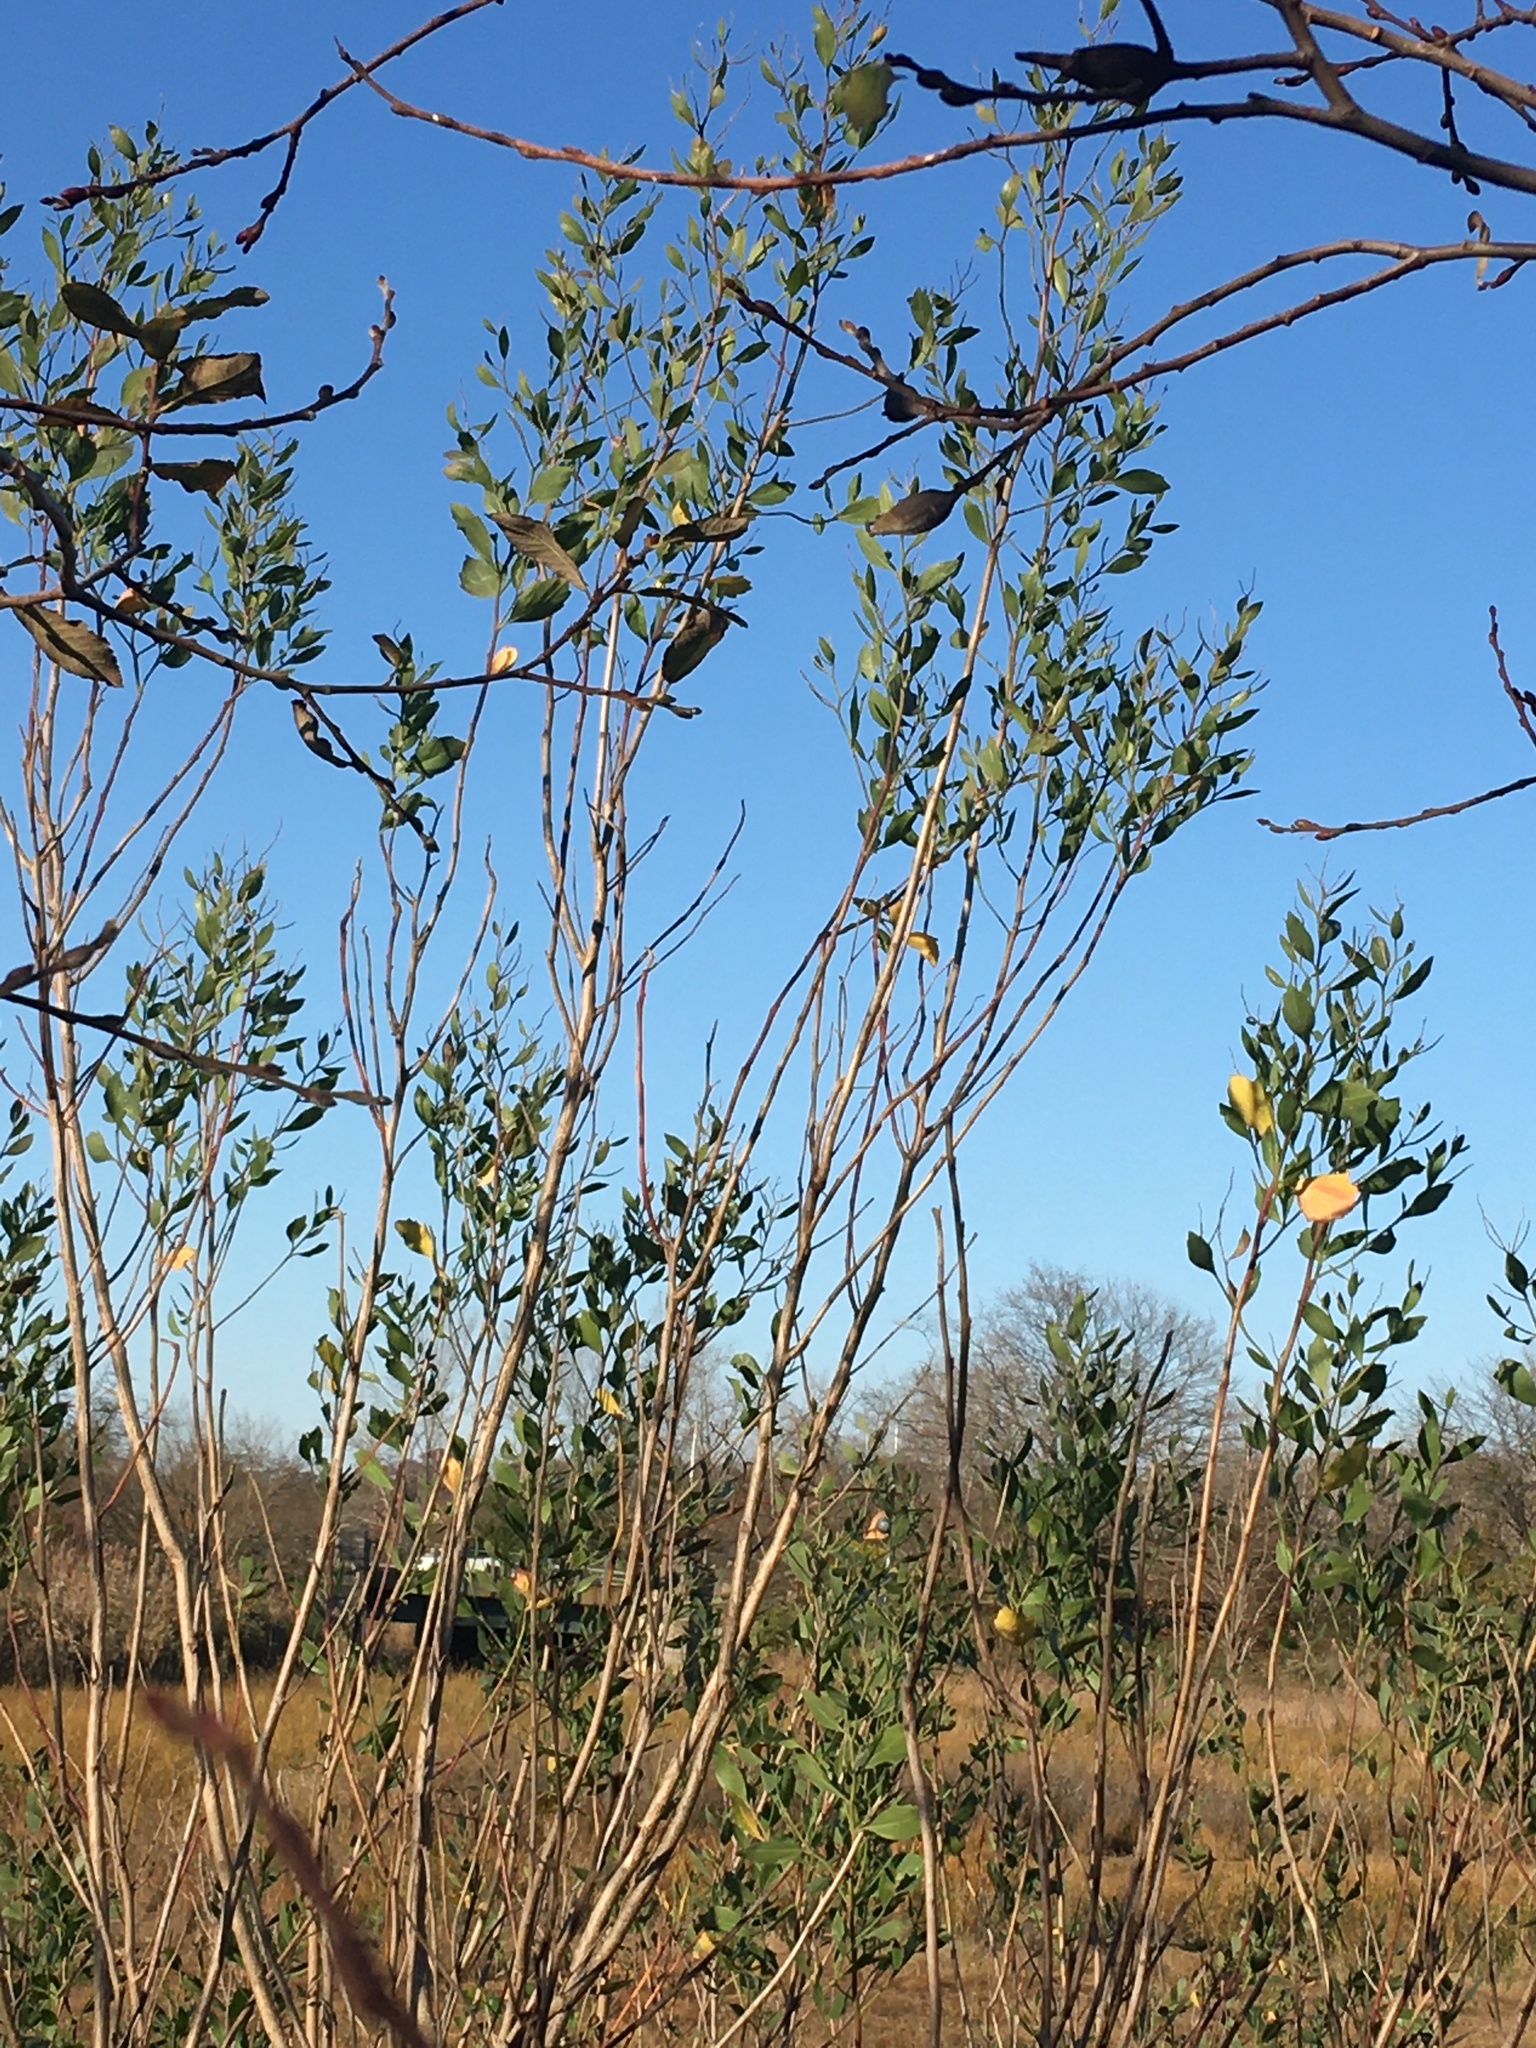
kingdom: Plantae
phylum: Tracheophyta
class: Magnoliopsida
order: Asterales
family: Asteraceae
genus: Baccharis
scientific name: Baccharis halimifolia
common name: Eastern baccharis
